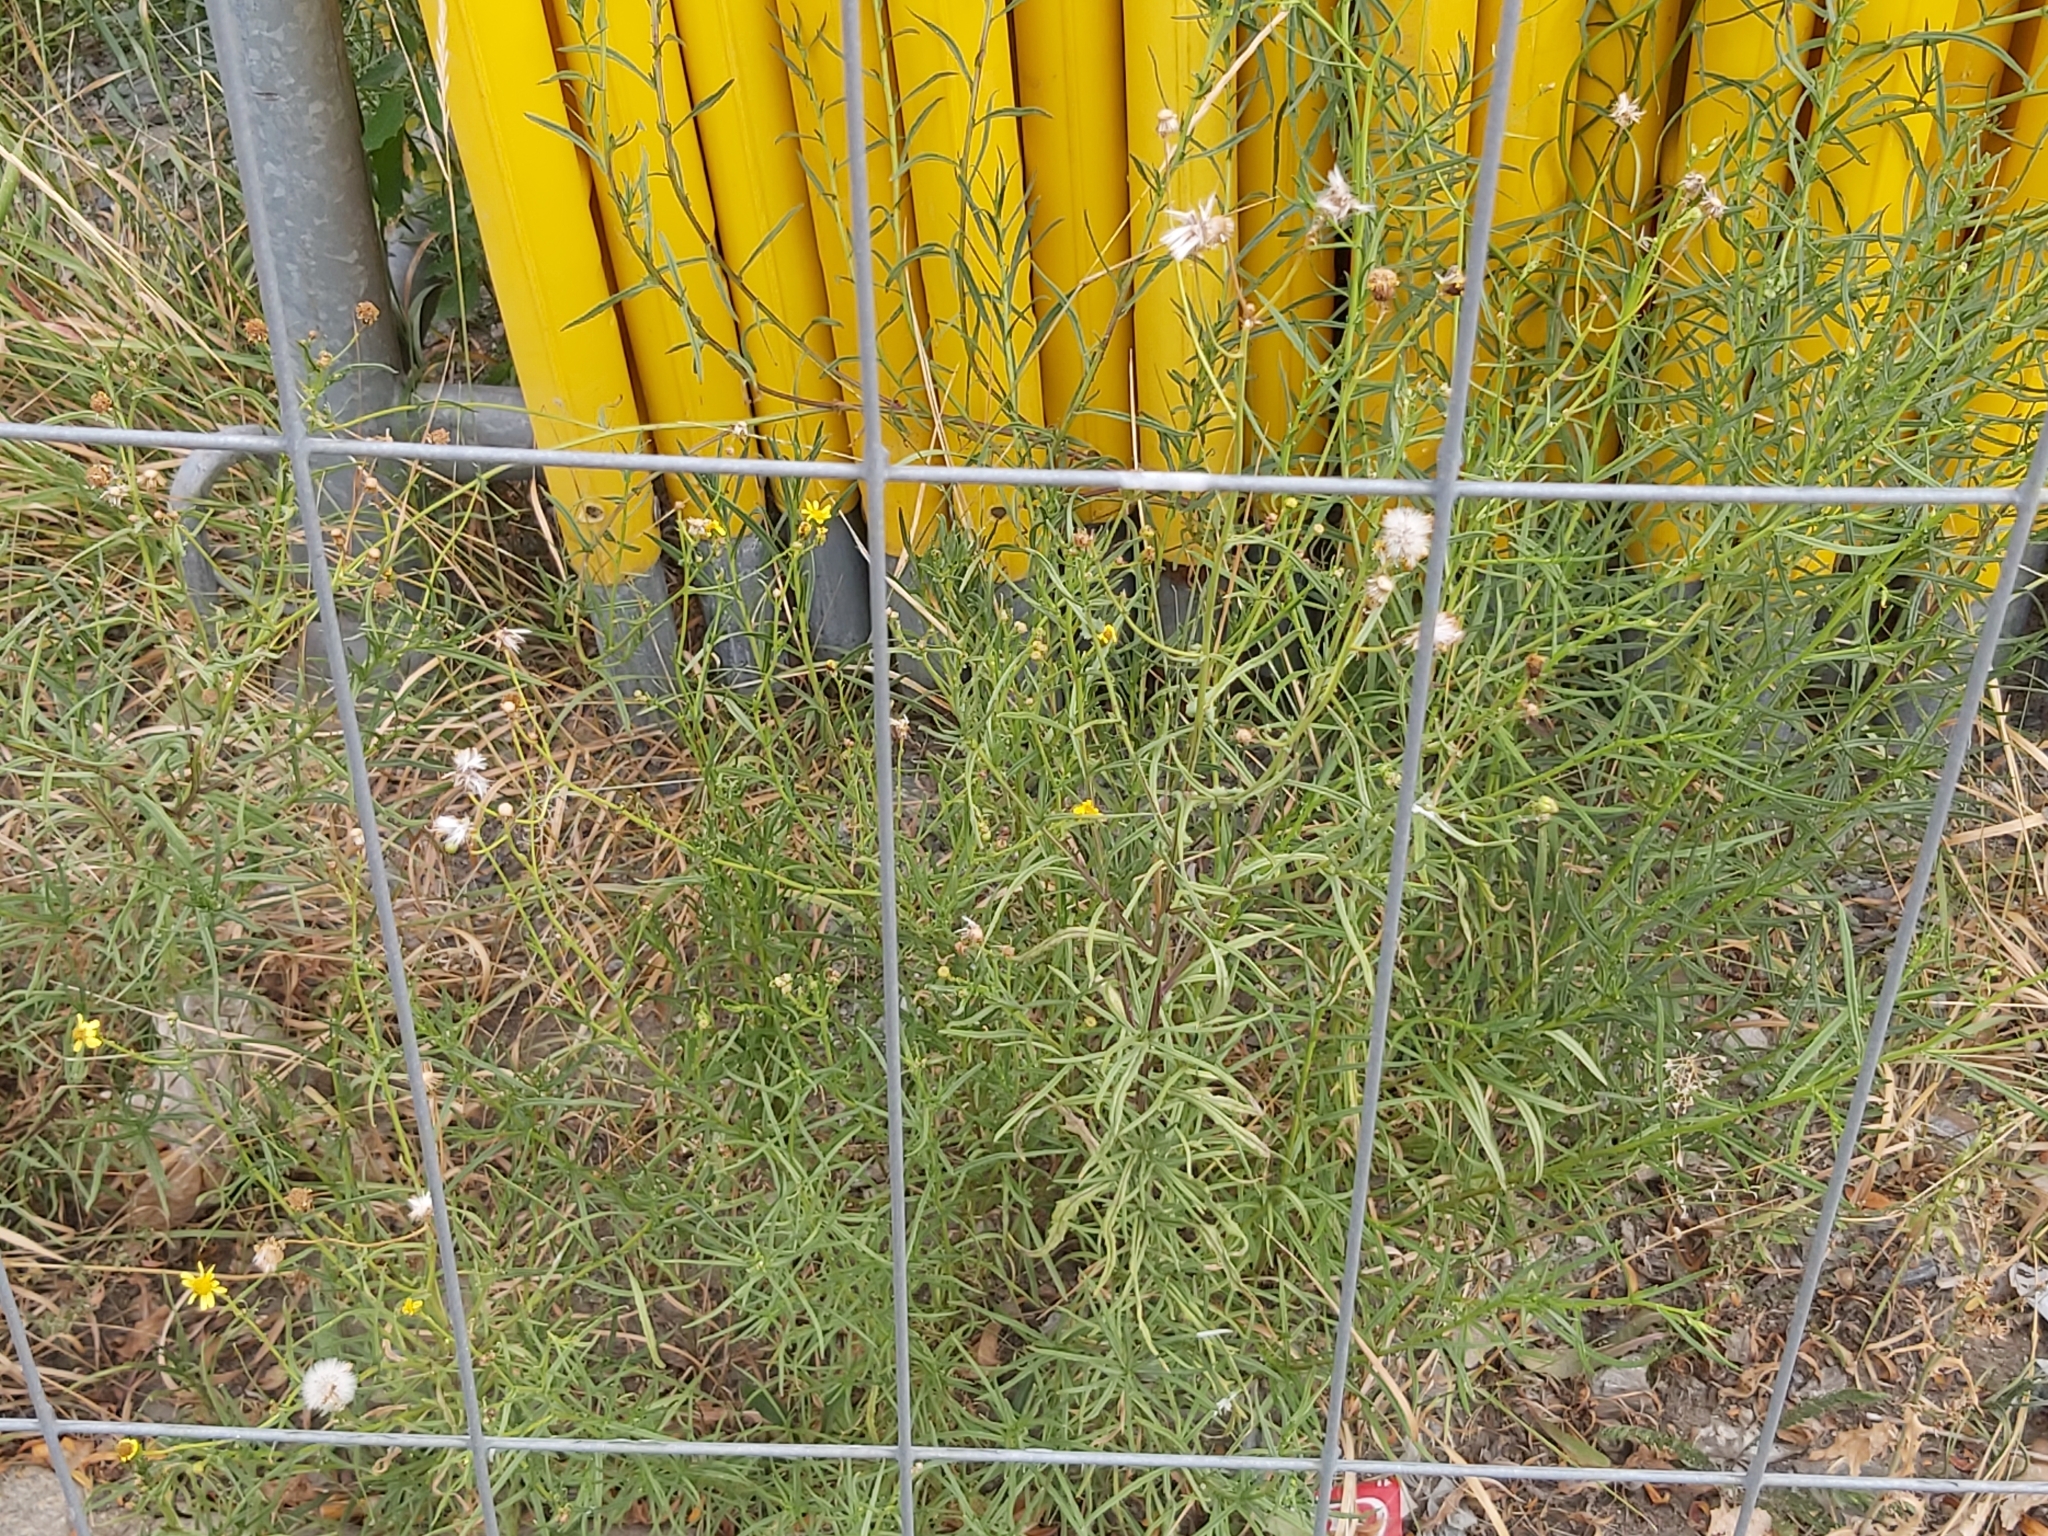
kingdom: Plantae
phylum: Tracheophyta
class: Magnoliopsida
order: Asterales
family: Asteraceae
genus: Senecio
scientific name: Senecio inaequidens
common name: Narrow-leaved ragwort
